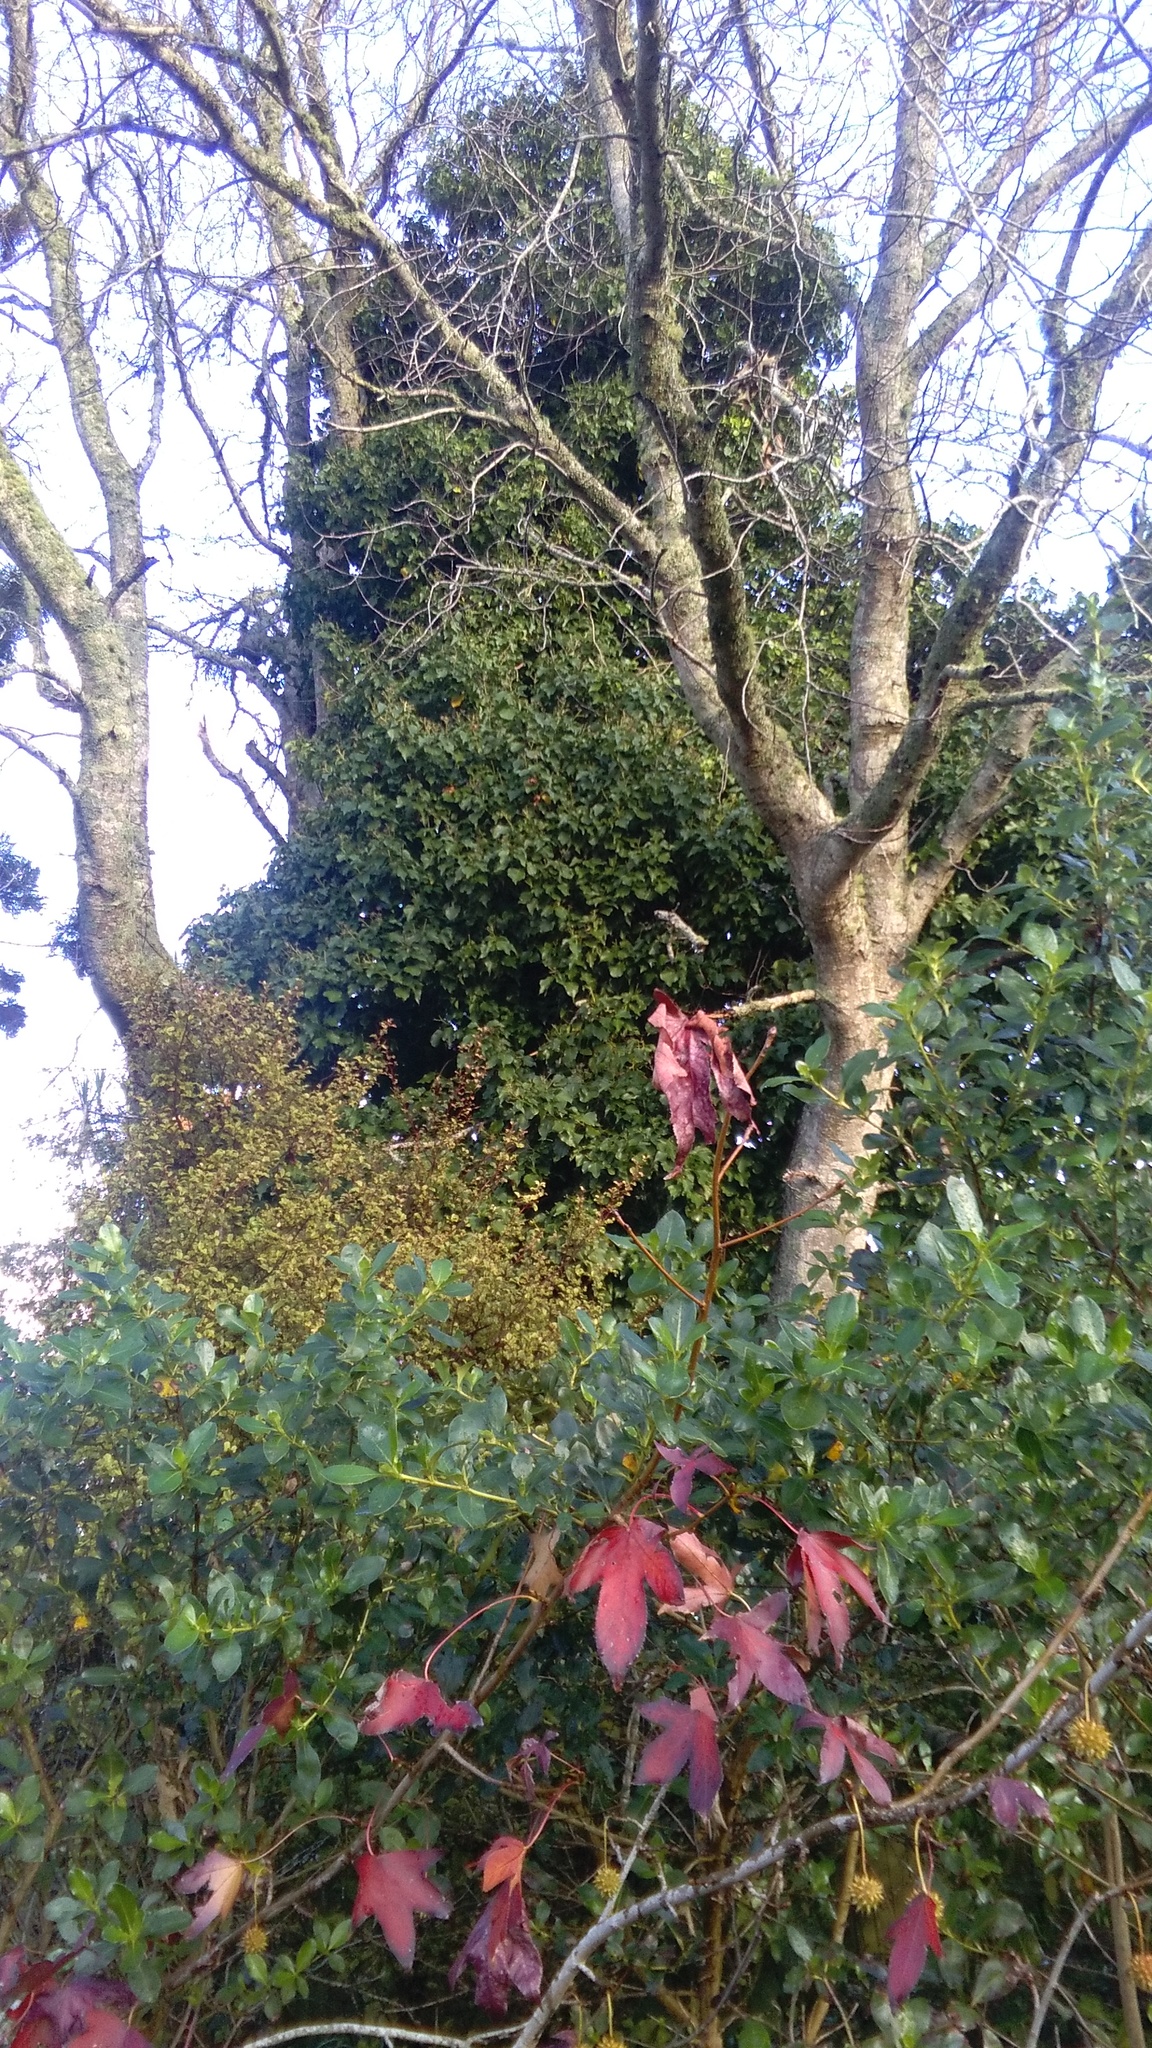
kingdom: Plantae
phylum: Tracheophyta
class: Magnoliopsida
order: Apiales
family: Araliaceae
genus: Hedera
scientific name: Hedera helix
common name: Ivy
